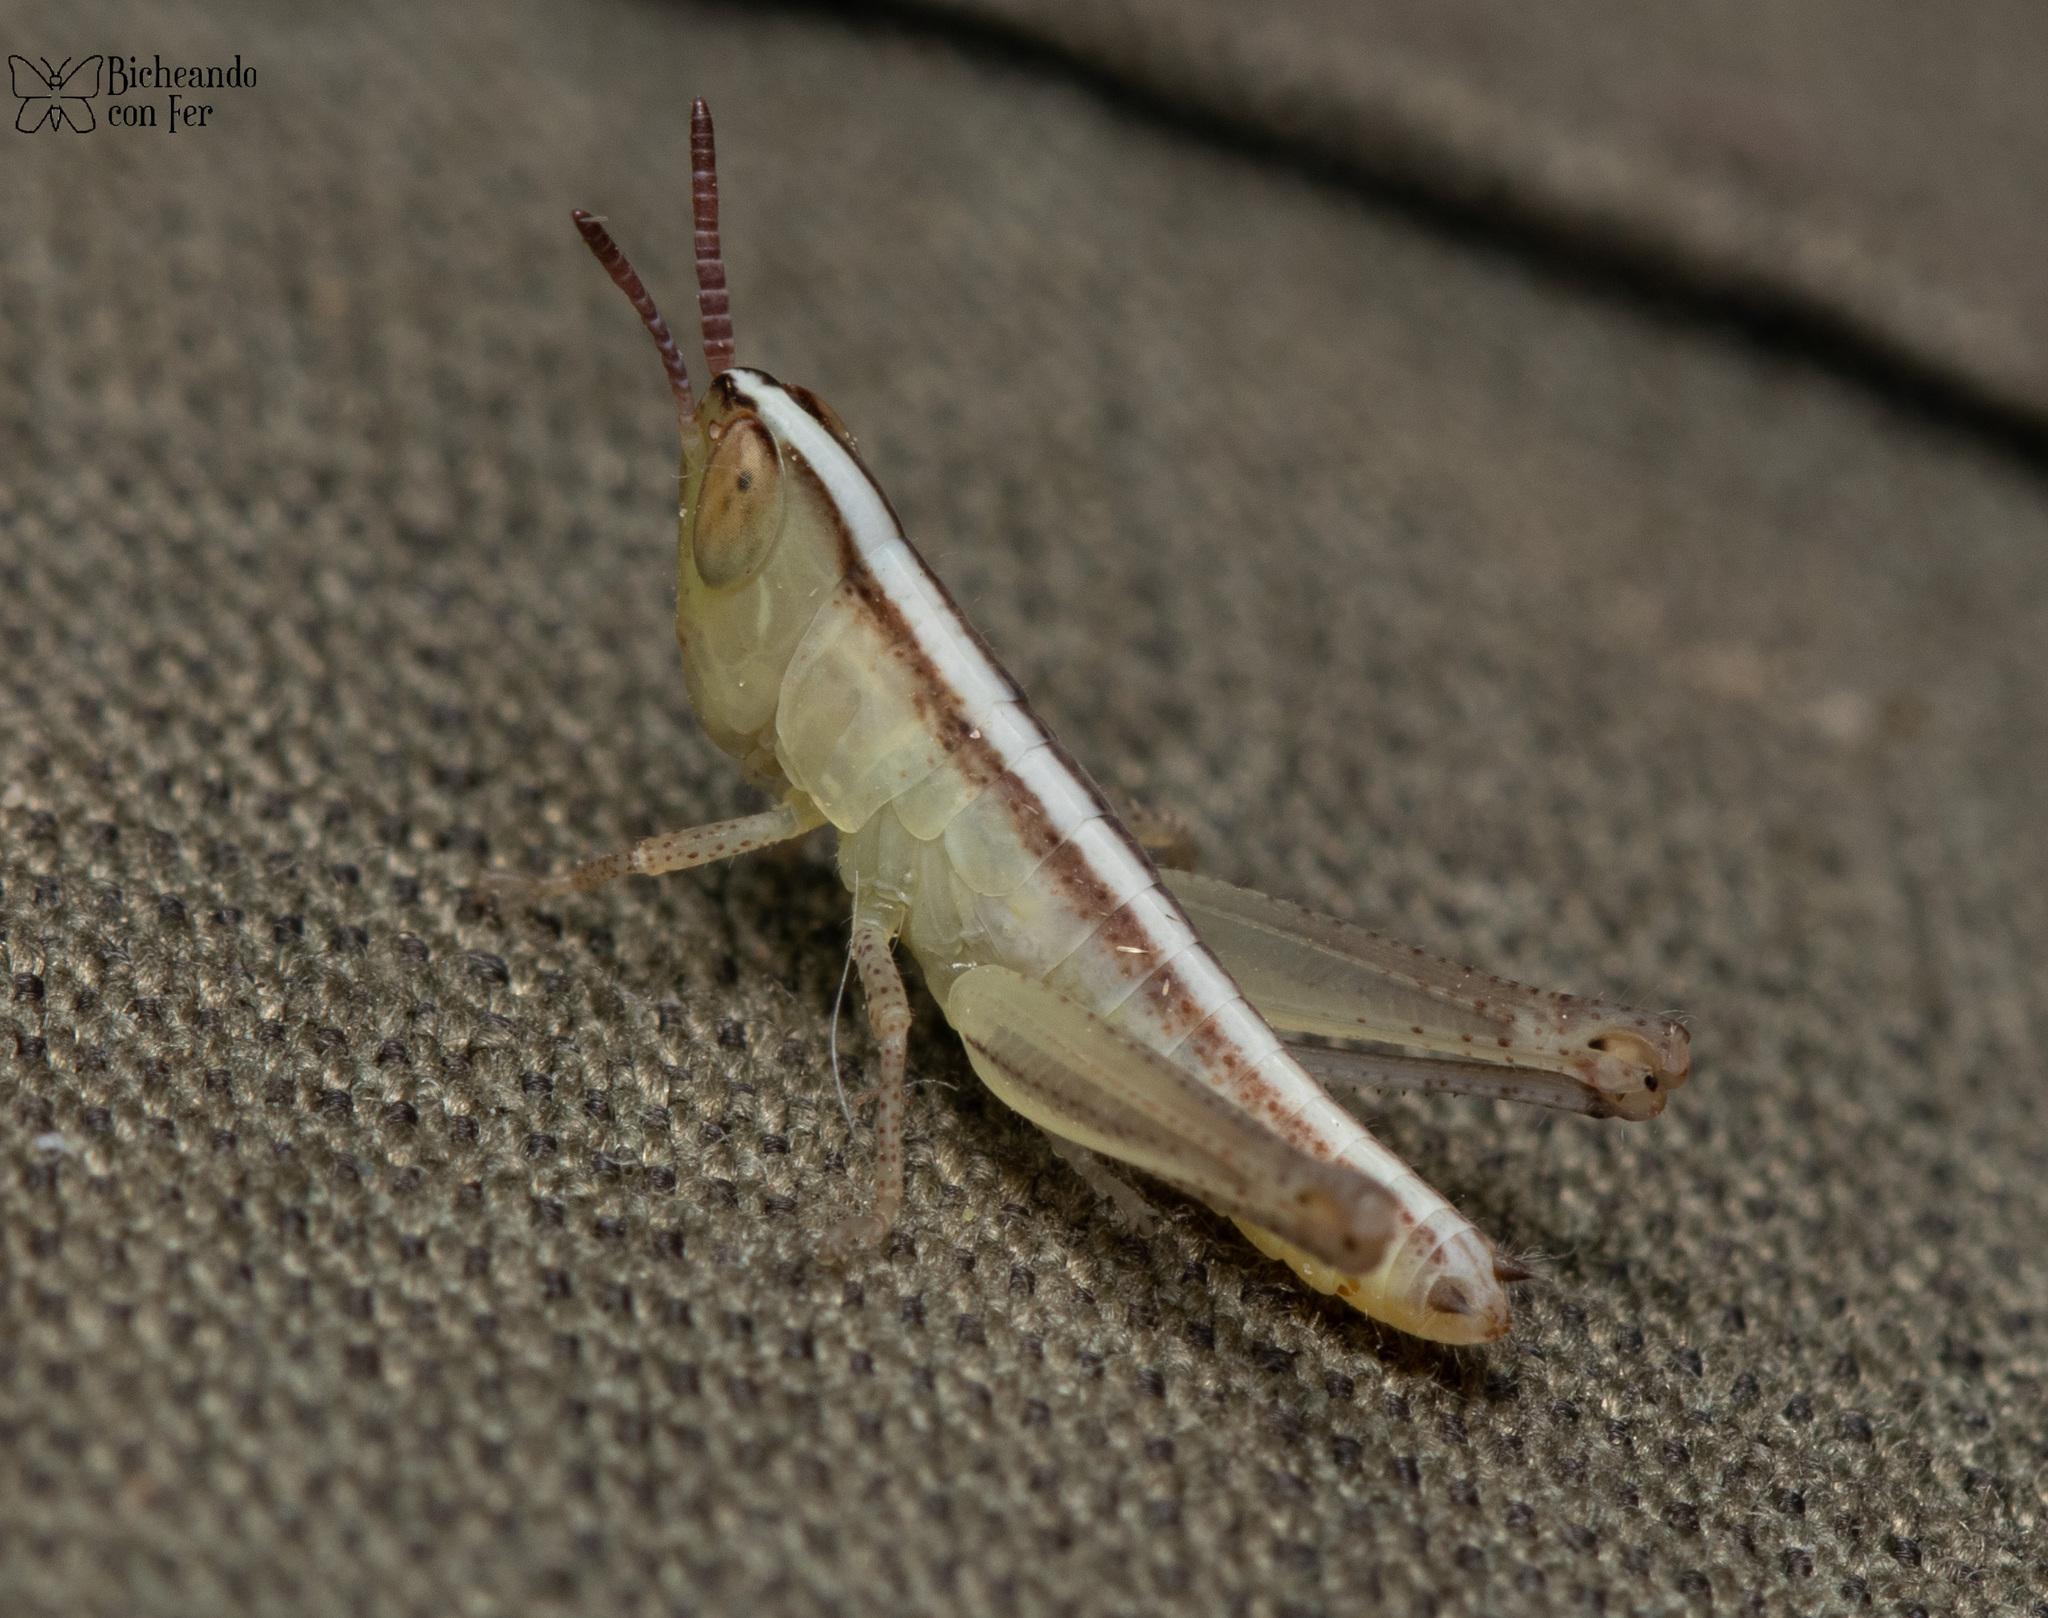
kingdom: Animalia
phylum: Arthropoda
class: Insecta
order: Orthoptera
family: Acrididae
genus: Rhammatocerus
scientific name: Rhammatocerus viatorius
